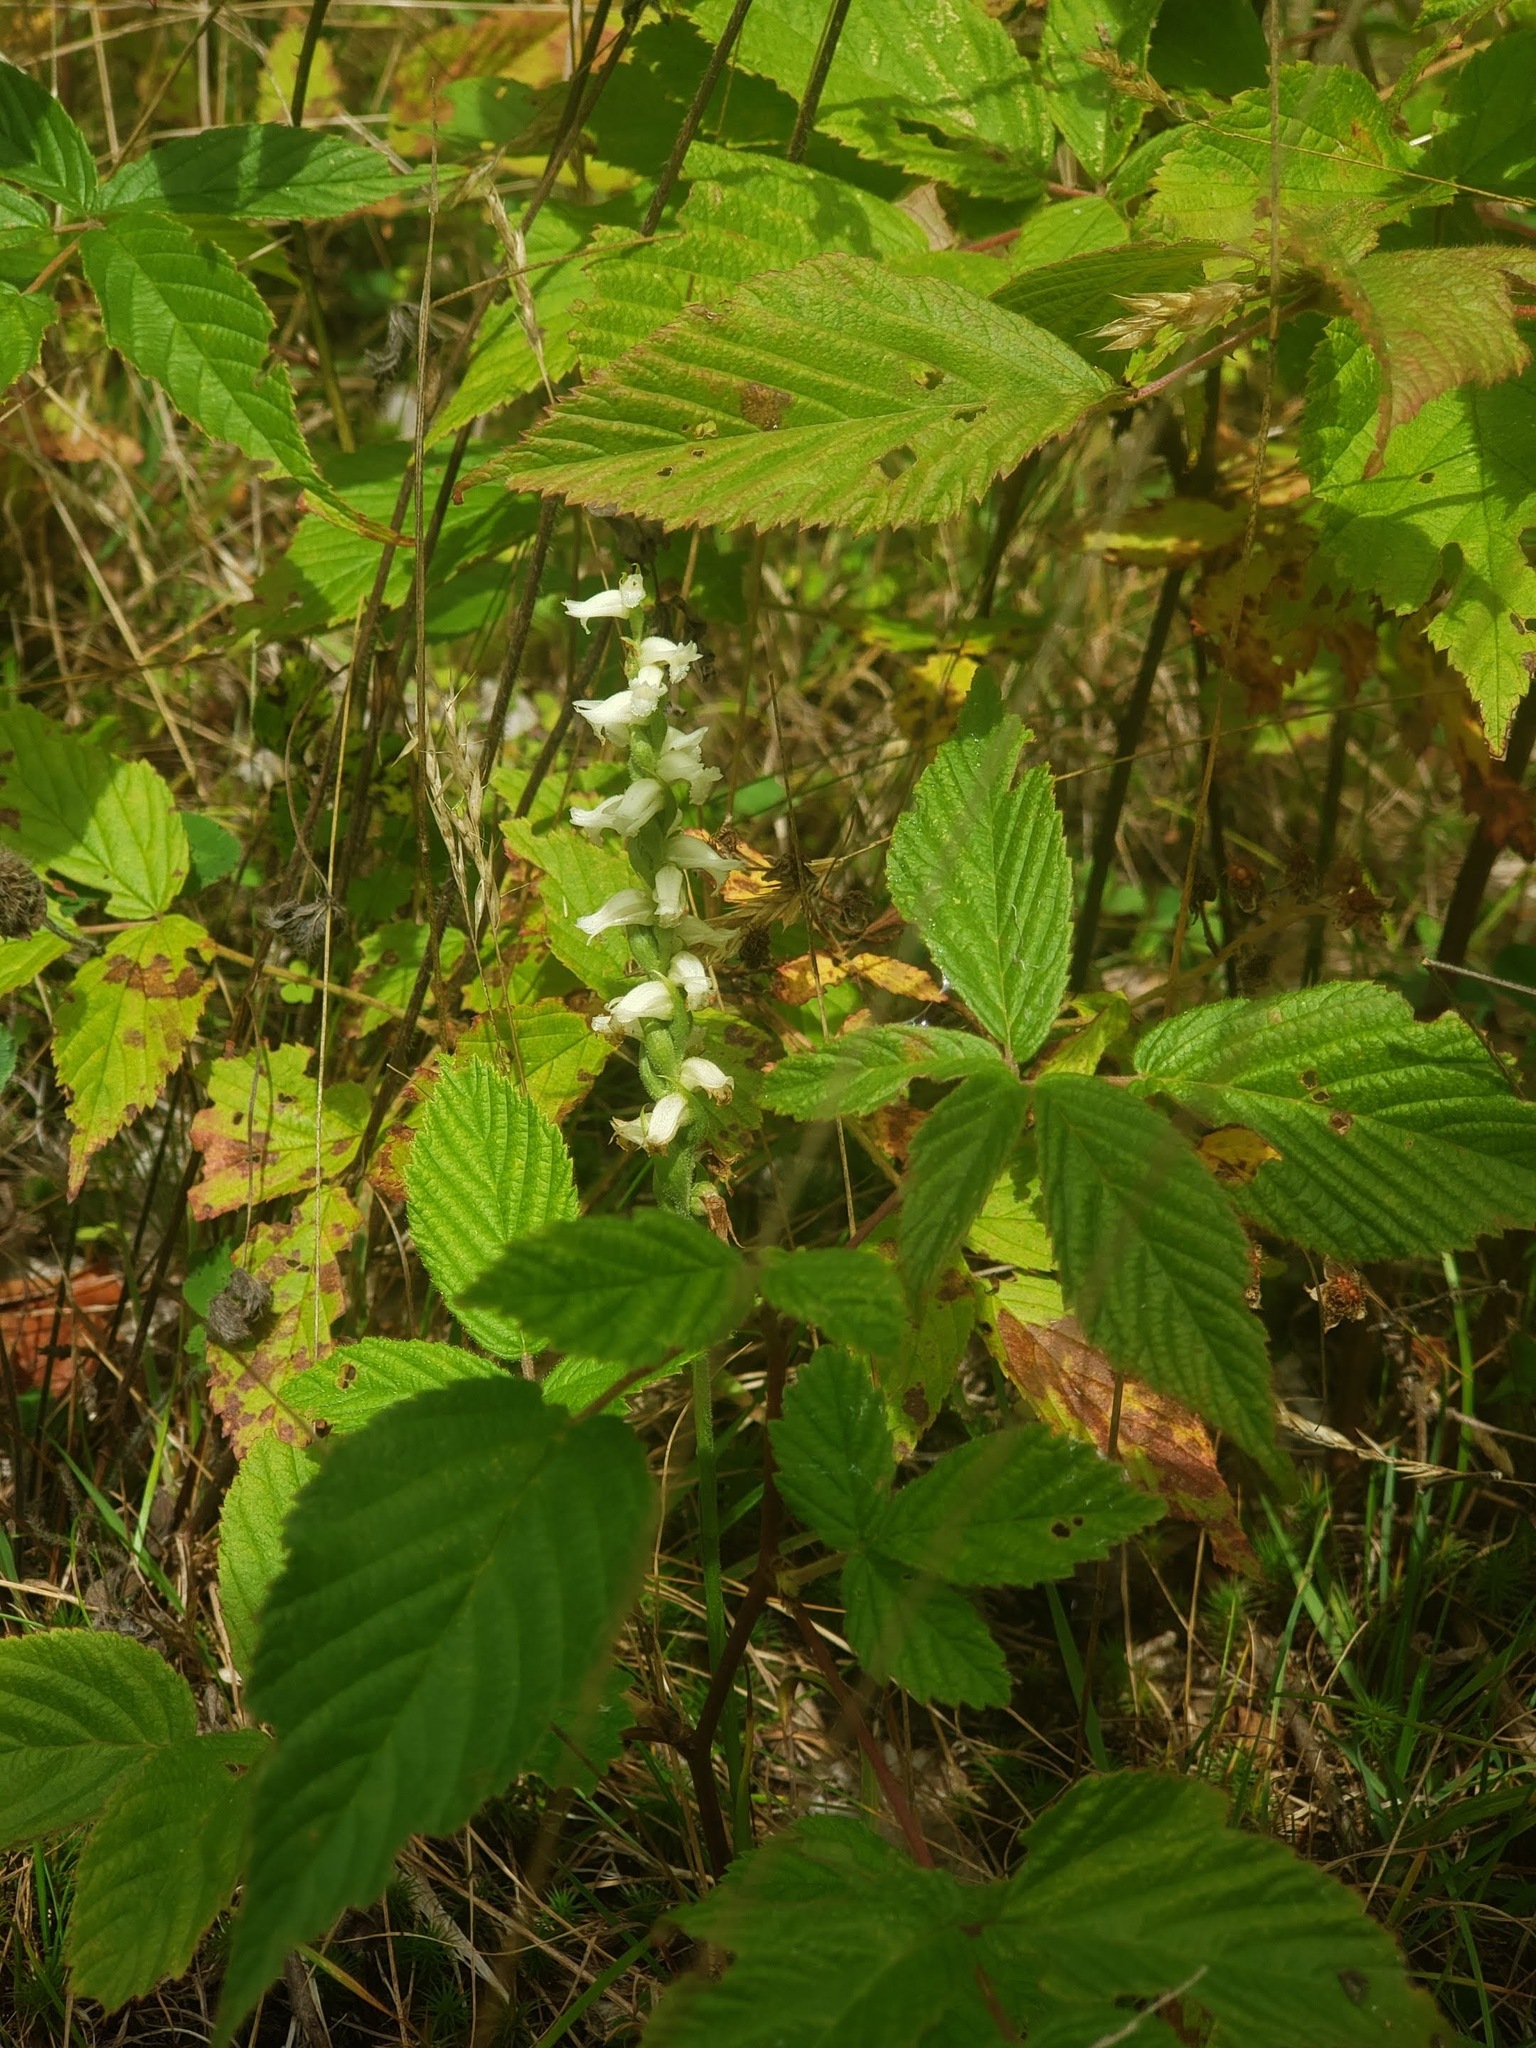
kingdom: Plantae
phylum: Tracheophyta
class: Liliopsida
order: Asparagales
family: Orchidaceae
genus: Spiranthes
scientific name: Spiranthes ochroleuca
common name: Yellow ladies'-tresses
